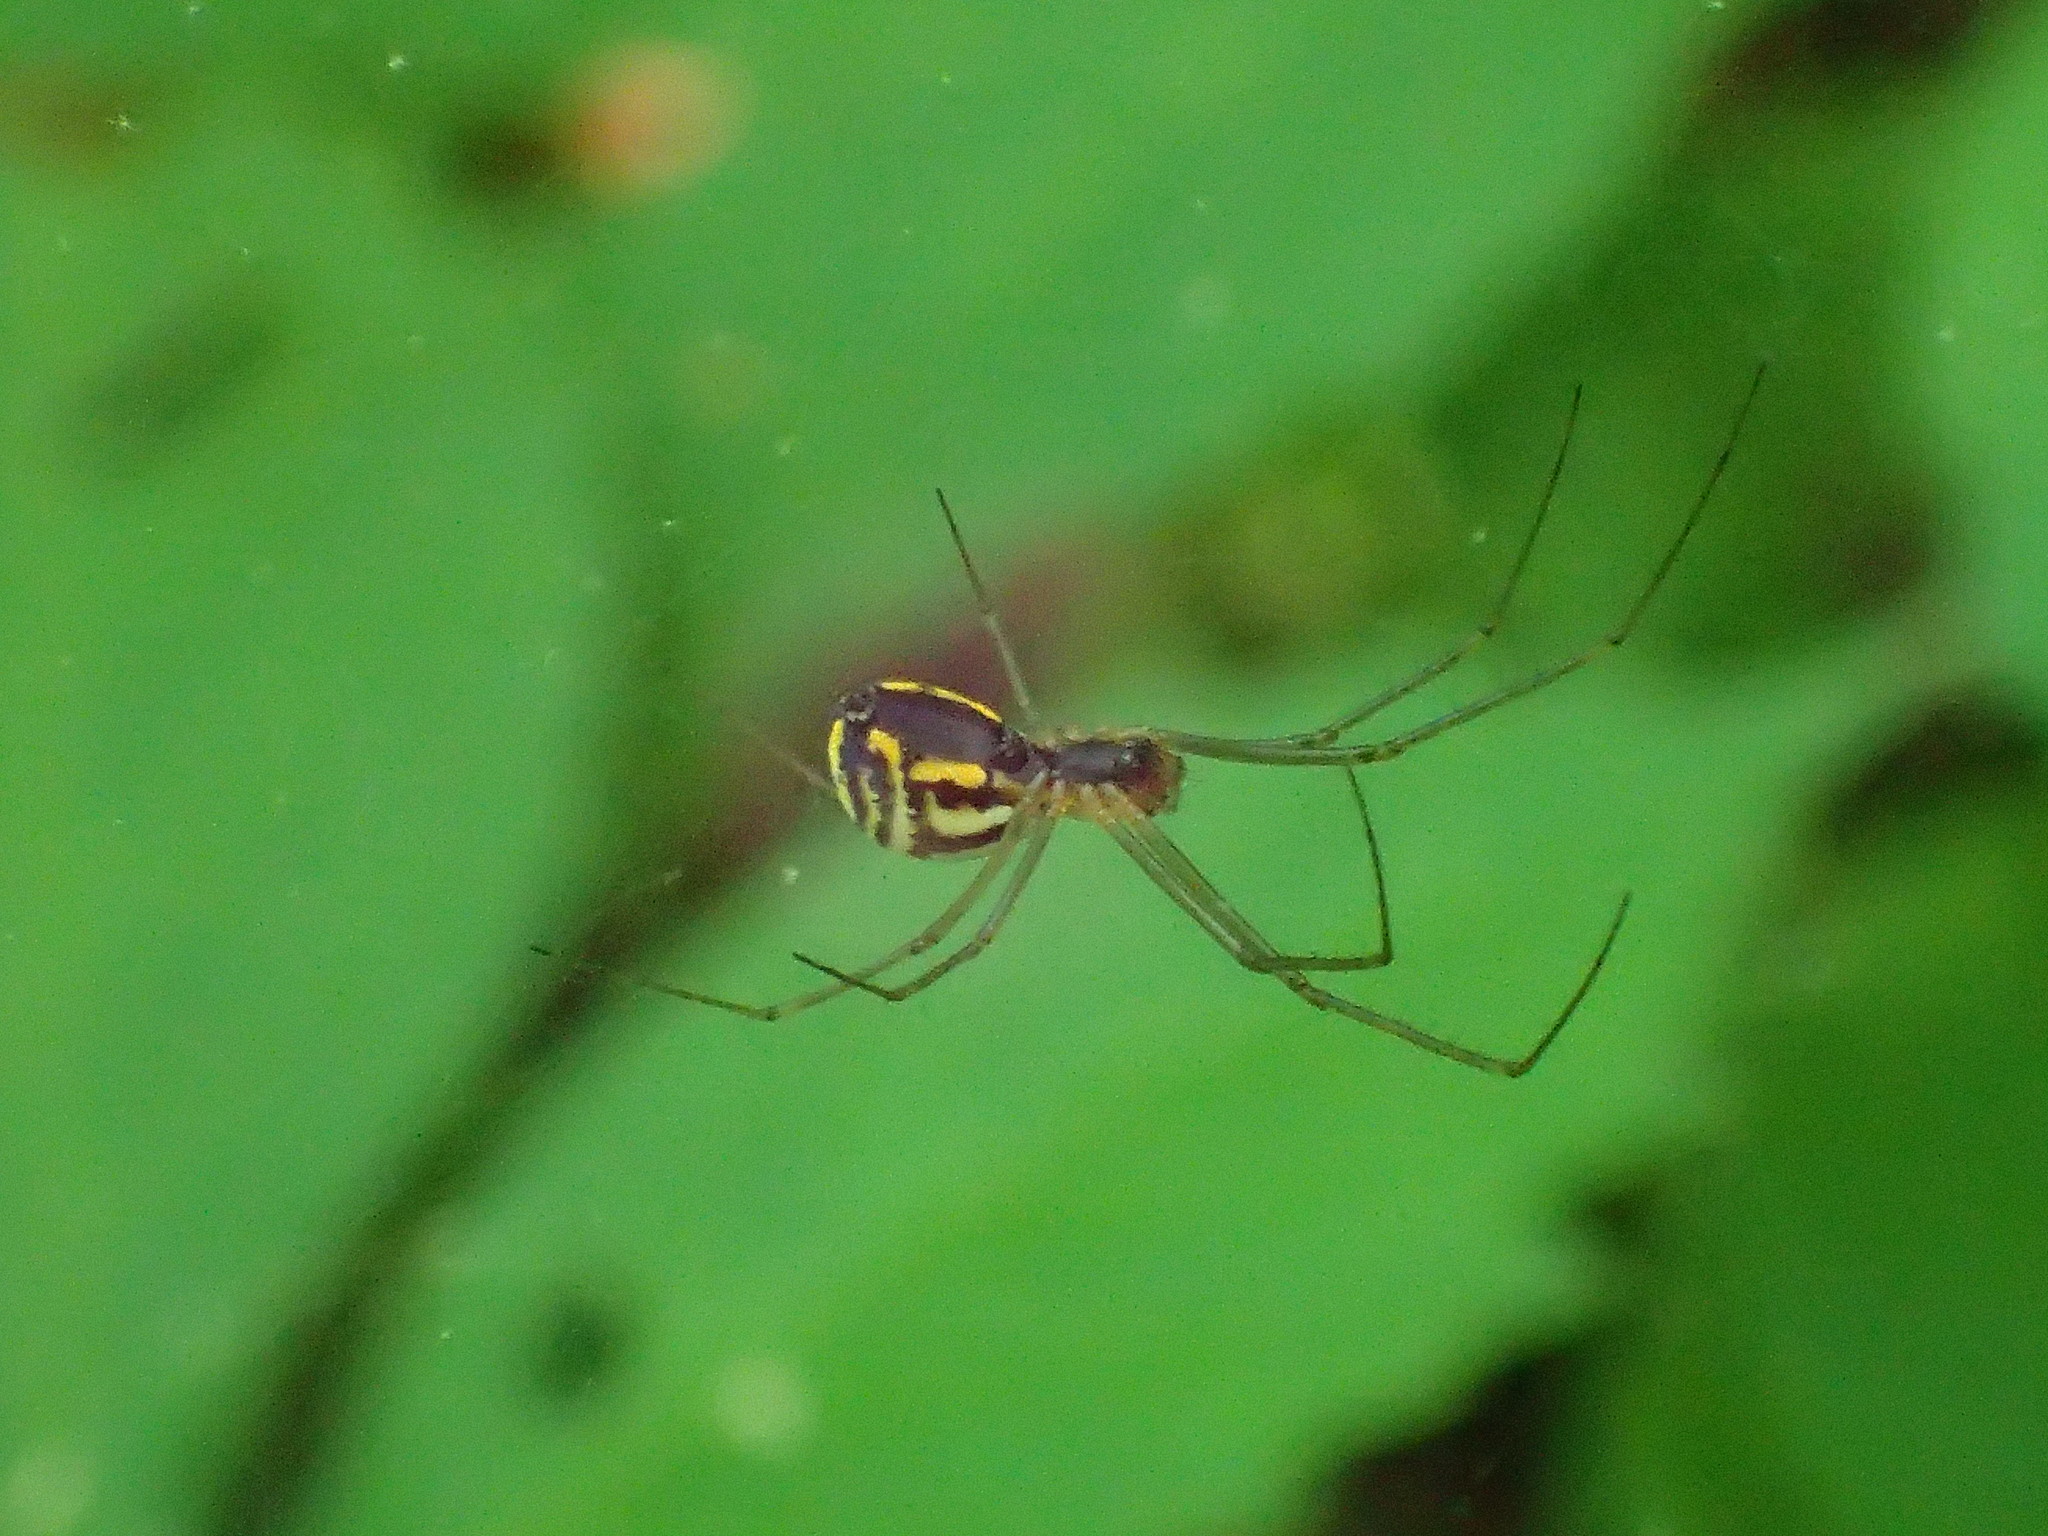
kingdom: Animalia
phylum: Arthropoda
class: Arachnida
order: Araneae
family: Linyphiidae
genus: Neriene
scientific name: Neriene radiata
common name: Filmy dome spider
